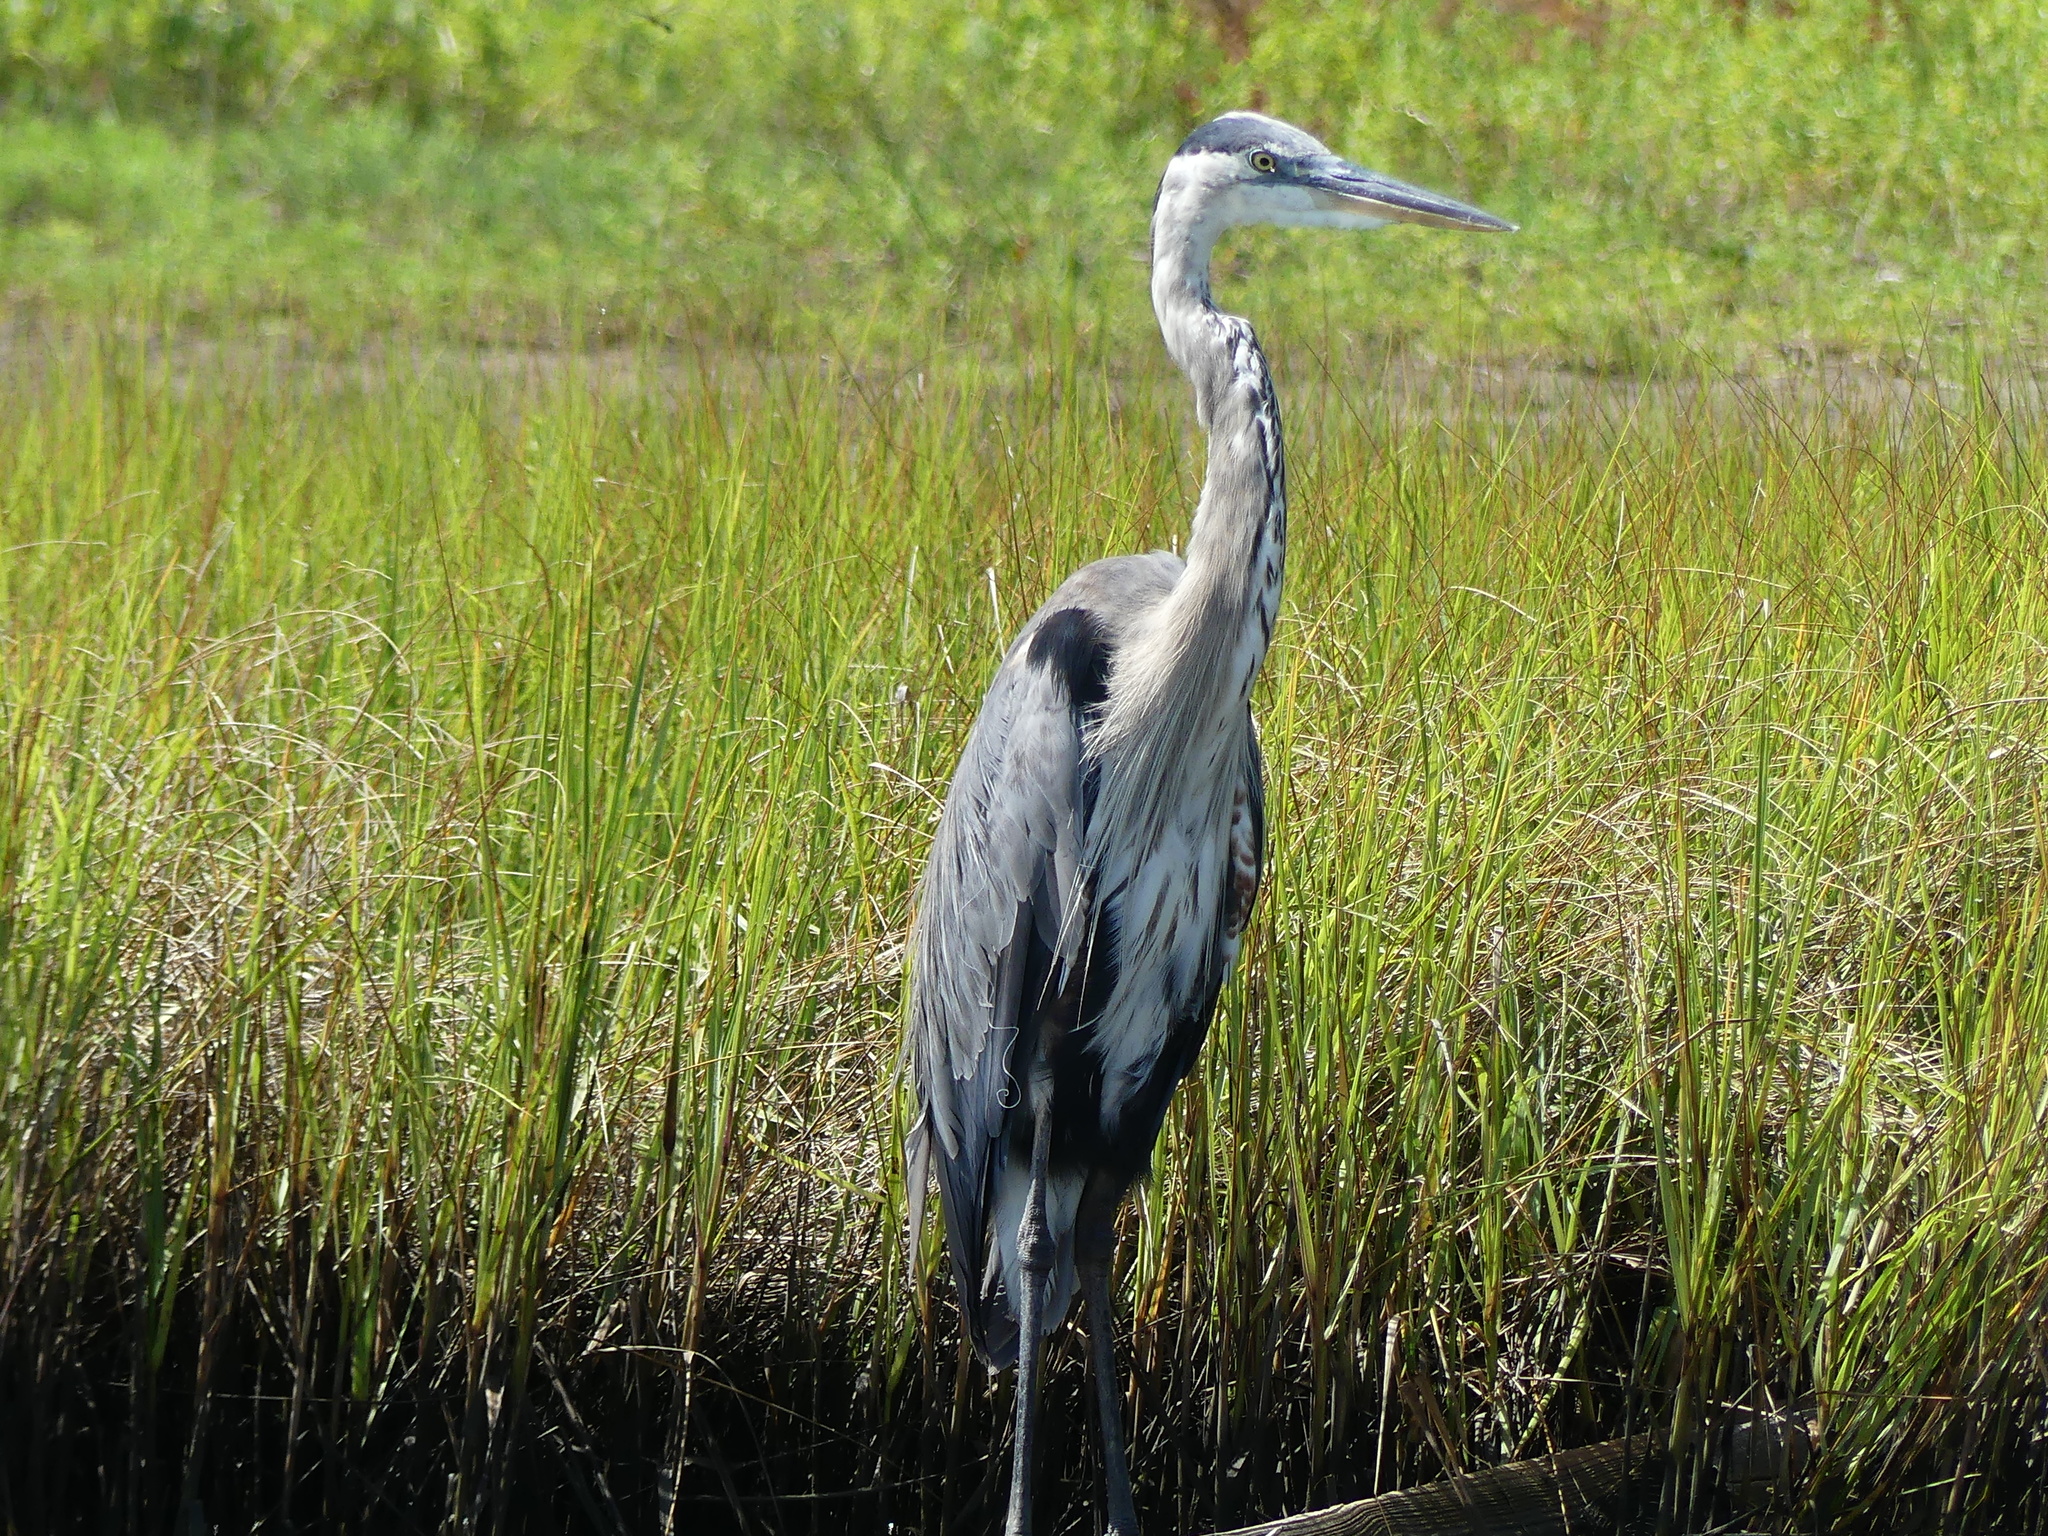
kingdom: Animalia
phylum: Chordata
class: Aves
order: Pelecaniformes
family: Ardeidae
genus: Ardea
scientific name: Ardea herodias
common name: Great blue heron
